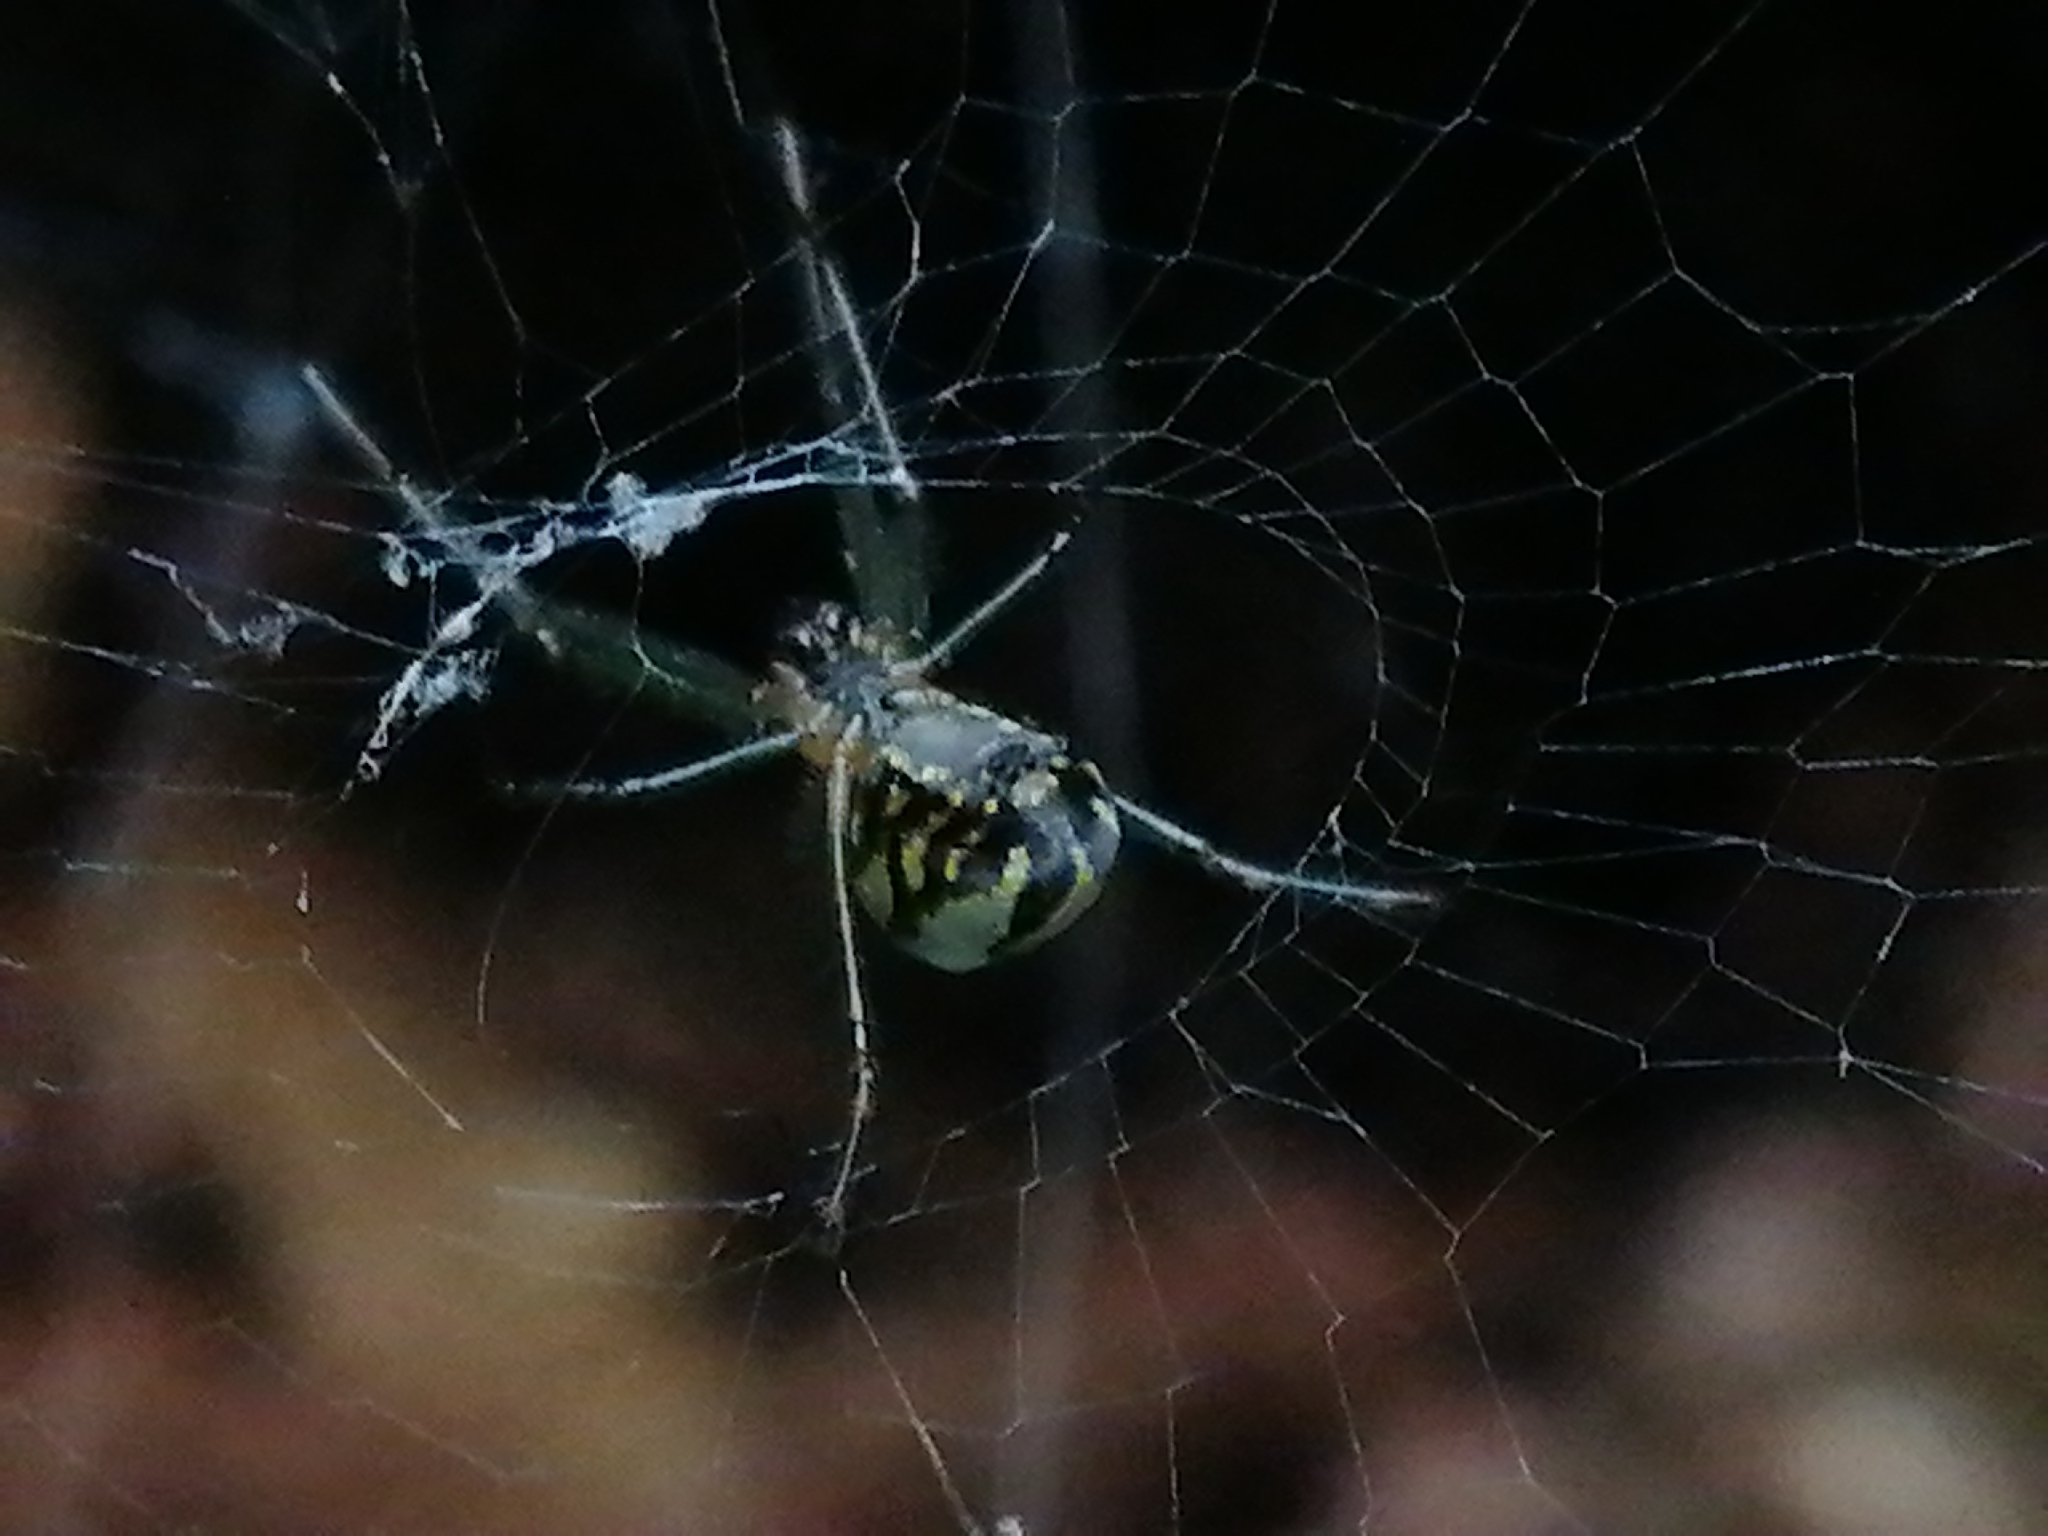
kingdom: Animalia
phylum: Arthropoda
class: Arachnida
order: Araneae
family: Tetragnathidae
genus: Leucauge
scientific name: Leucauge dromedaria
